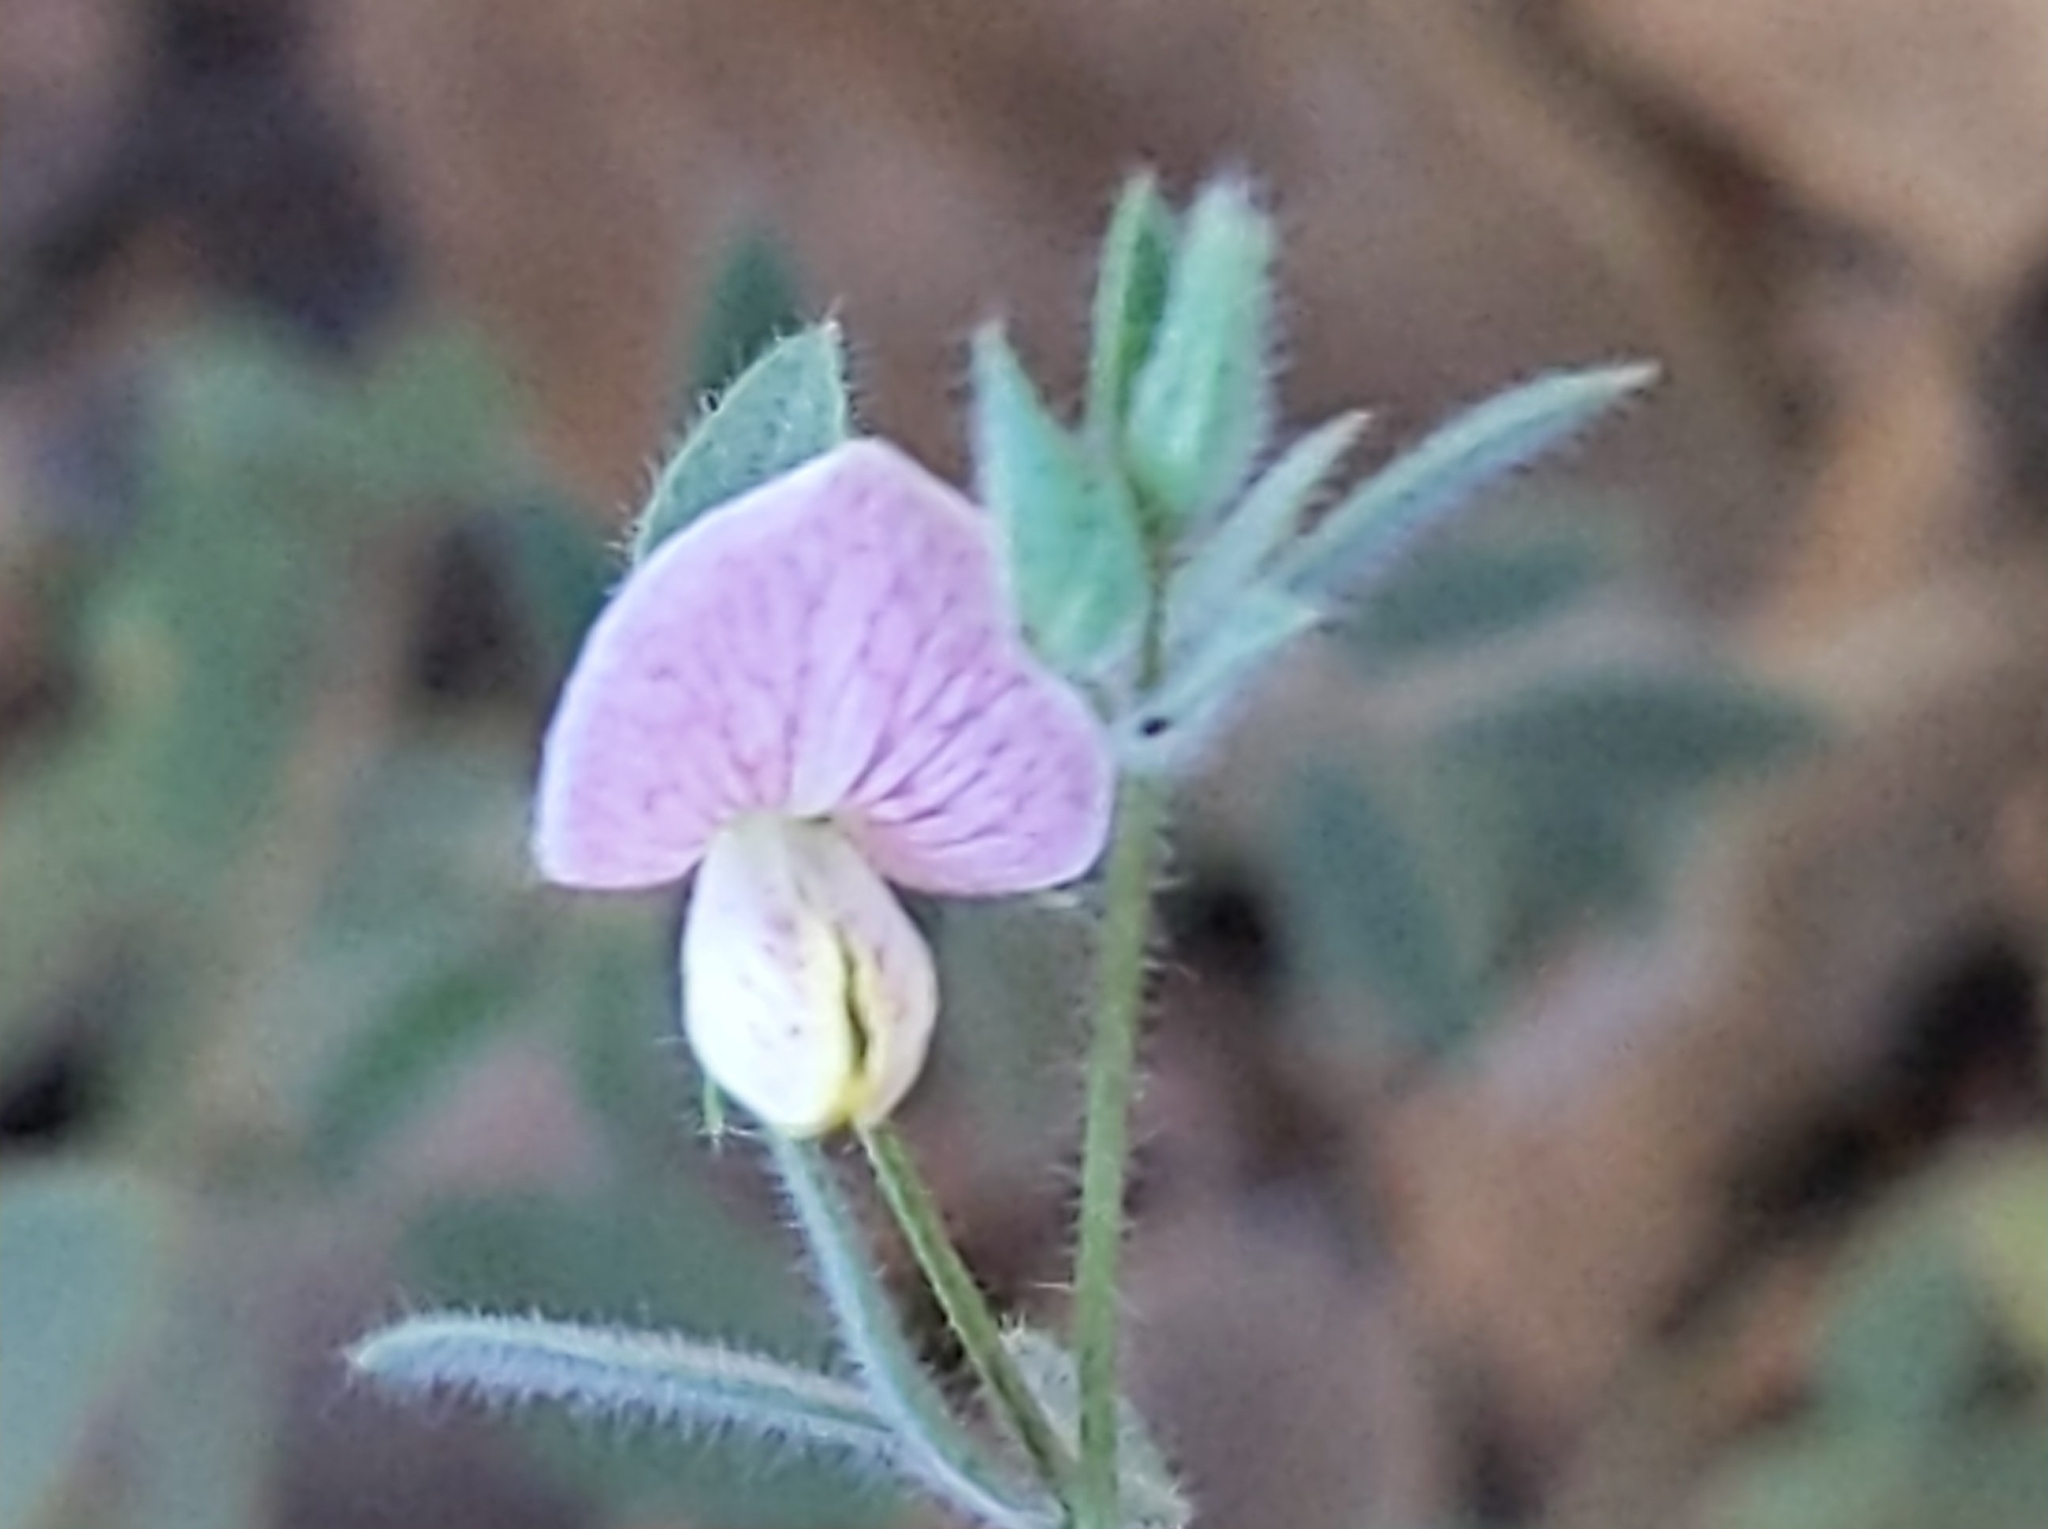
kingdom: Plantae
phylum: Tracheophyta
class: Magnoliopsida
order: Fabales
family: Fabaceae
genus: Acmispon
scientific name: Acmispon americanus
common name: American bird's-foot trefoil
